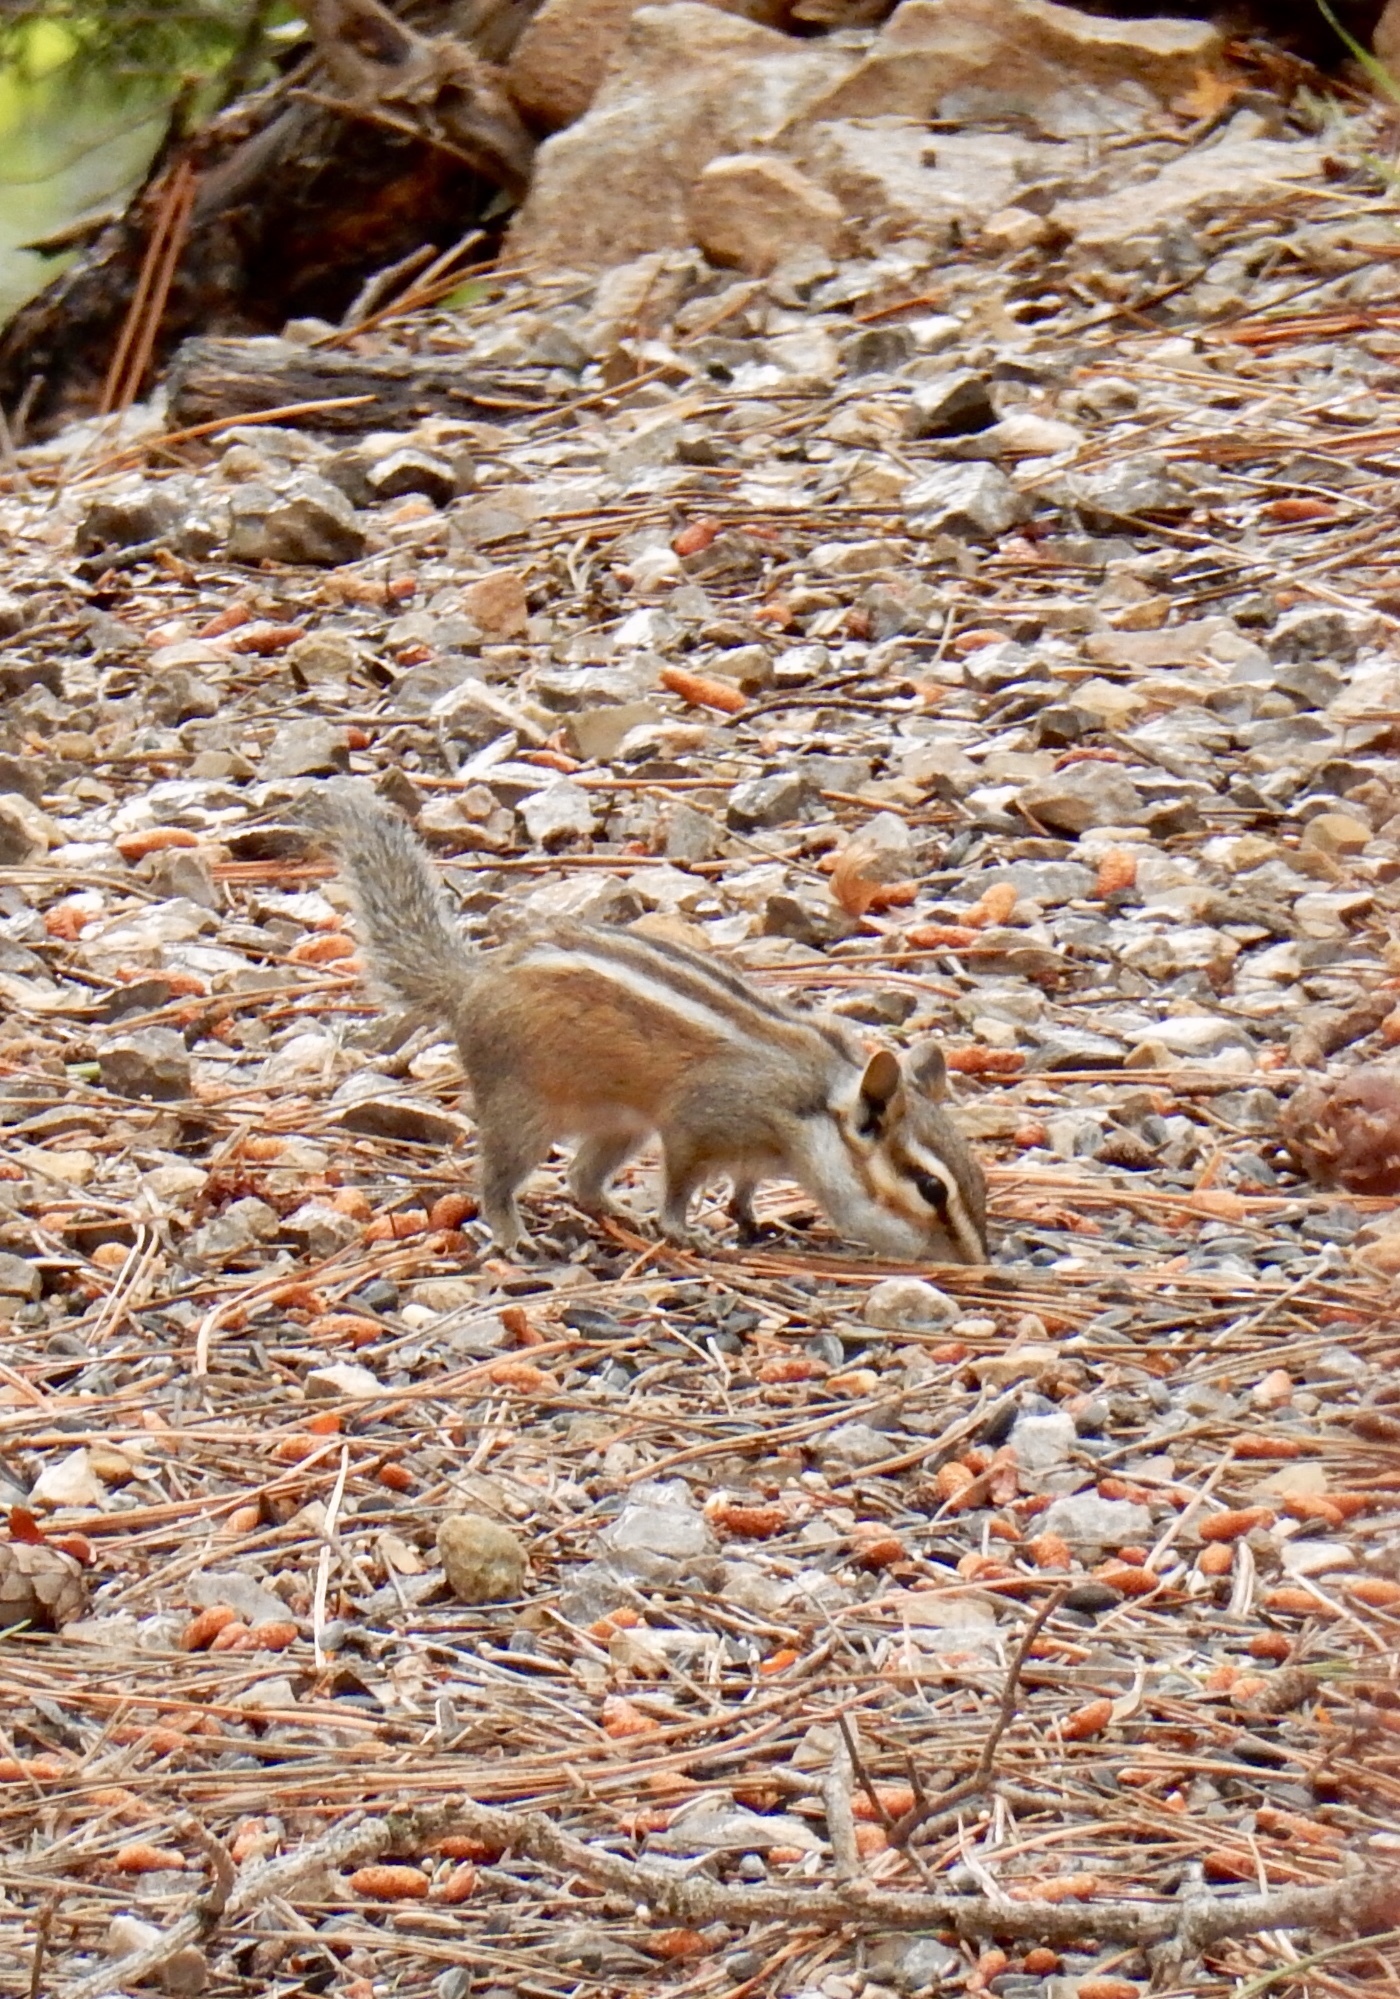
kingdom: Animalia
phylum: Chordata
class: Mammalia
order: Rodentia
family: Sciuridae
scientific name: Sciuridae
